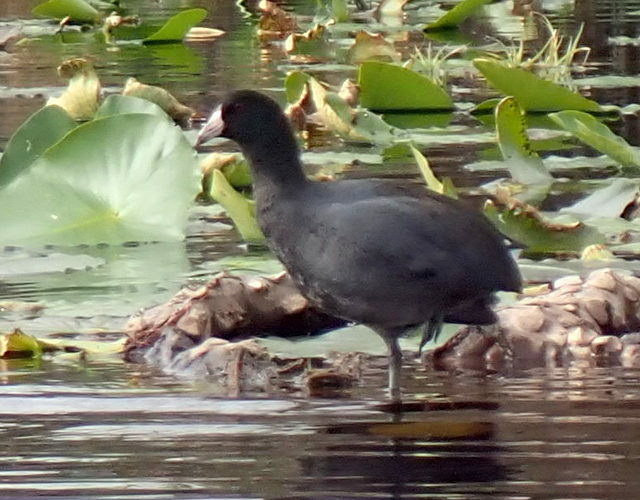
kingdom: Animalia
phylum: Chordata
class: Aves
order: Gruiformes
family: Rallidae
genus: Fulica
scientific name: Fulica americana
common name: American coot
